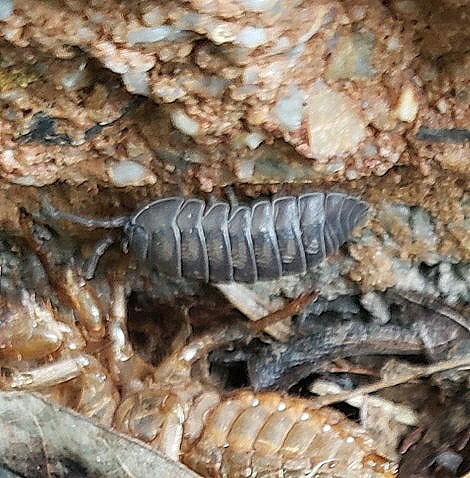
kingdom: Animalia
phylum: Arthropoda
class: Malacostraca
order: Isopoda
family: Armadillidiidae
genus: Armadillidium
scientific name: Armadillidium nasatum
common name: Isopod
